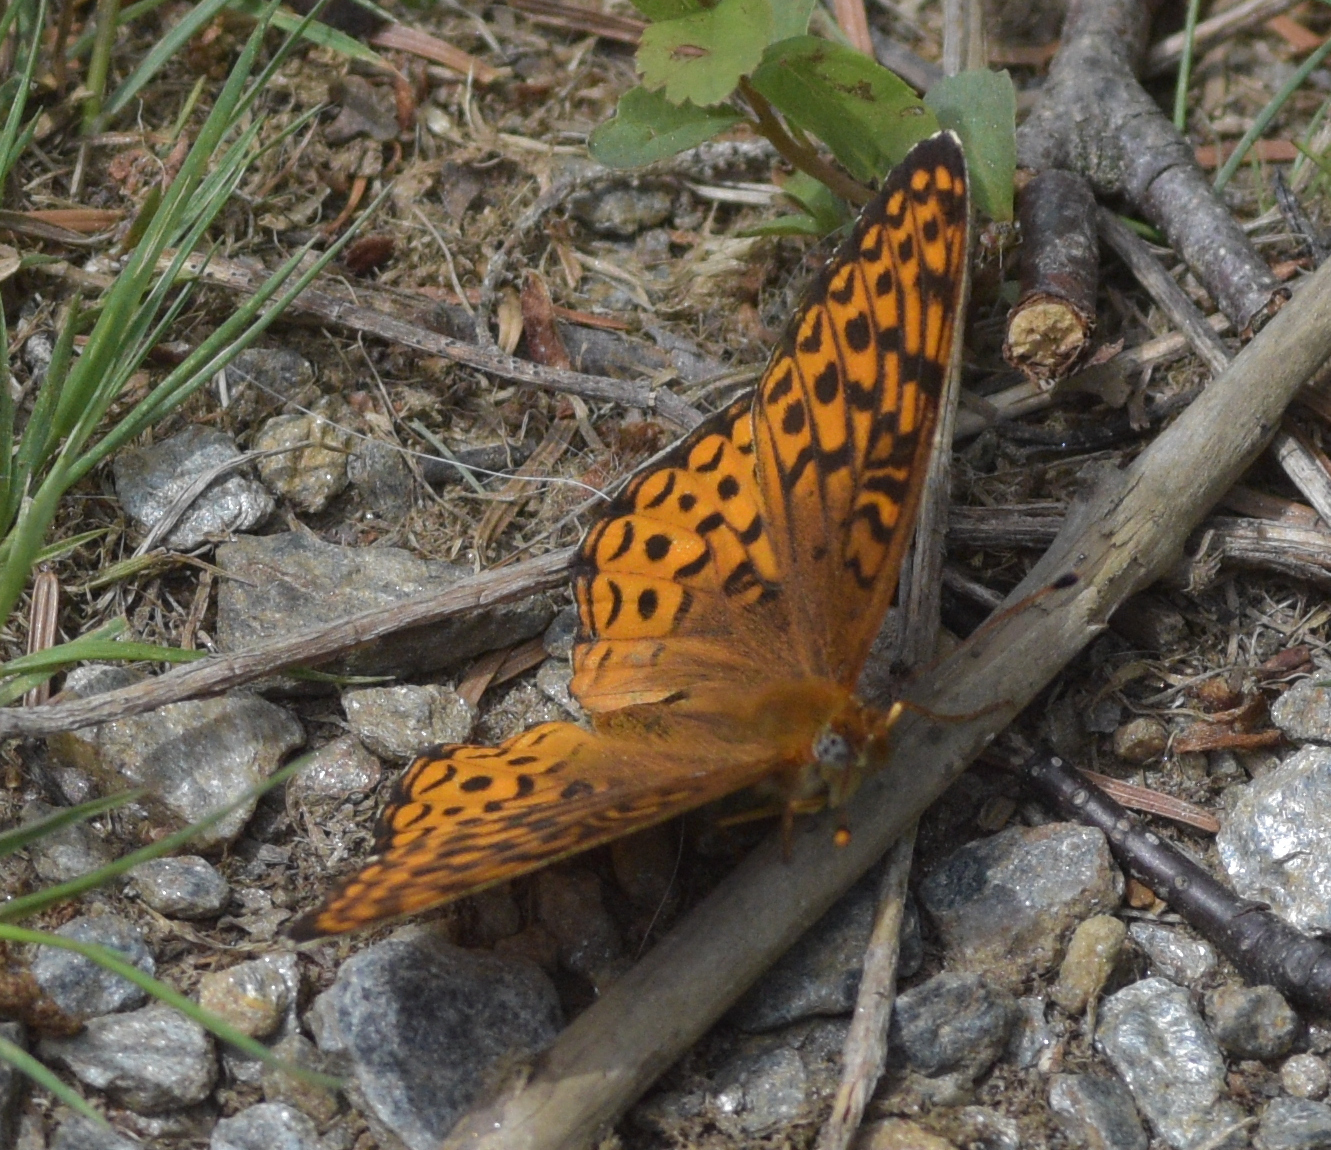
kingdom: Animalia
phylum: Arthropoda
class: Insecta
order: Lepidoptera
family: Nymphalidae
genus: Speyeria
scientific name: Speyeria atlantis
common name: Atlantis fritillary
